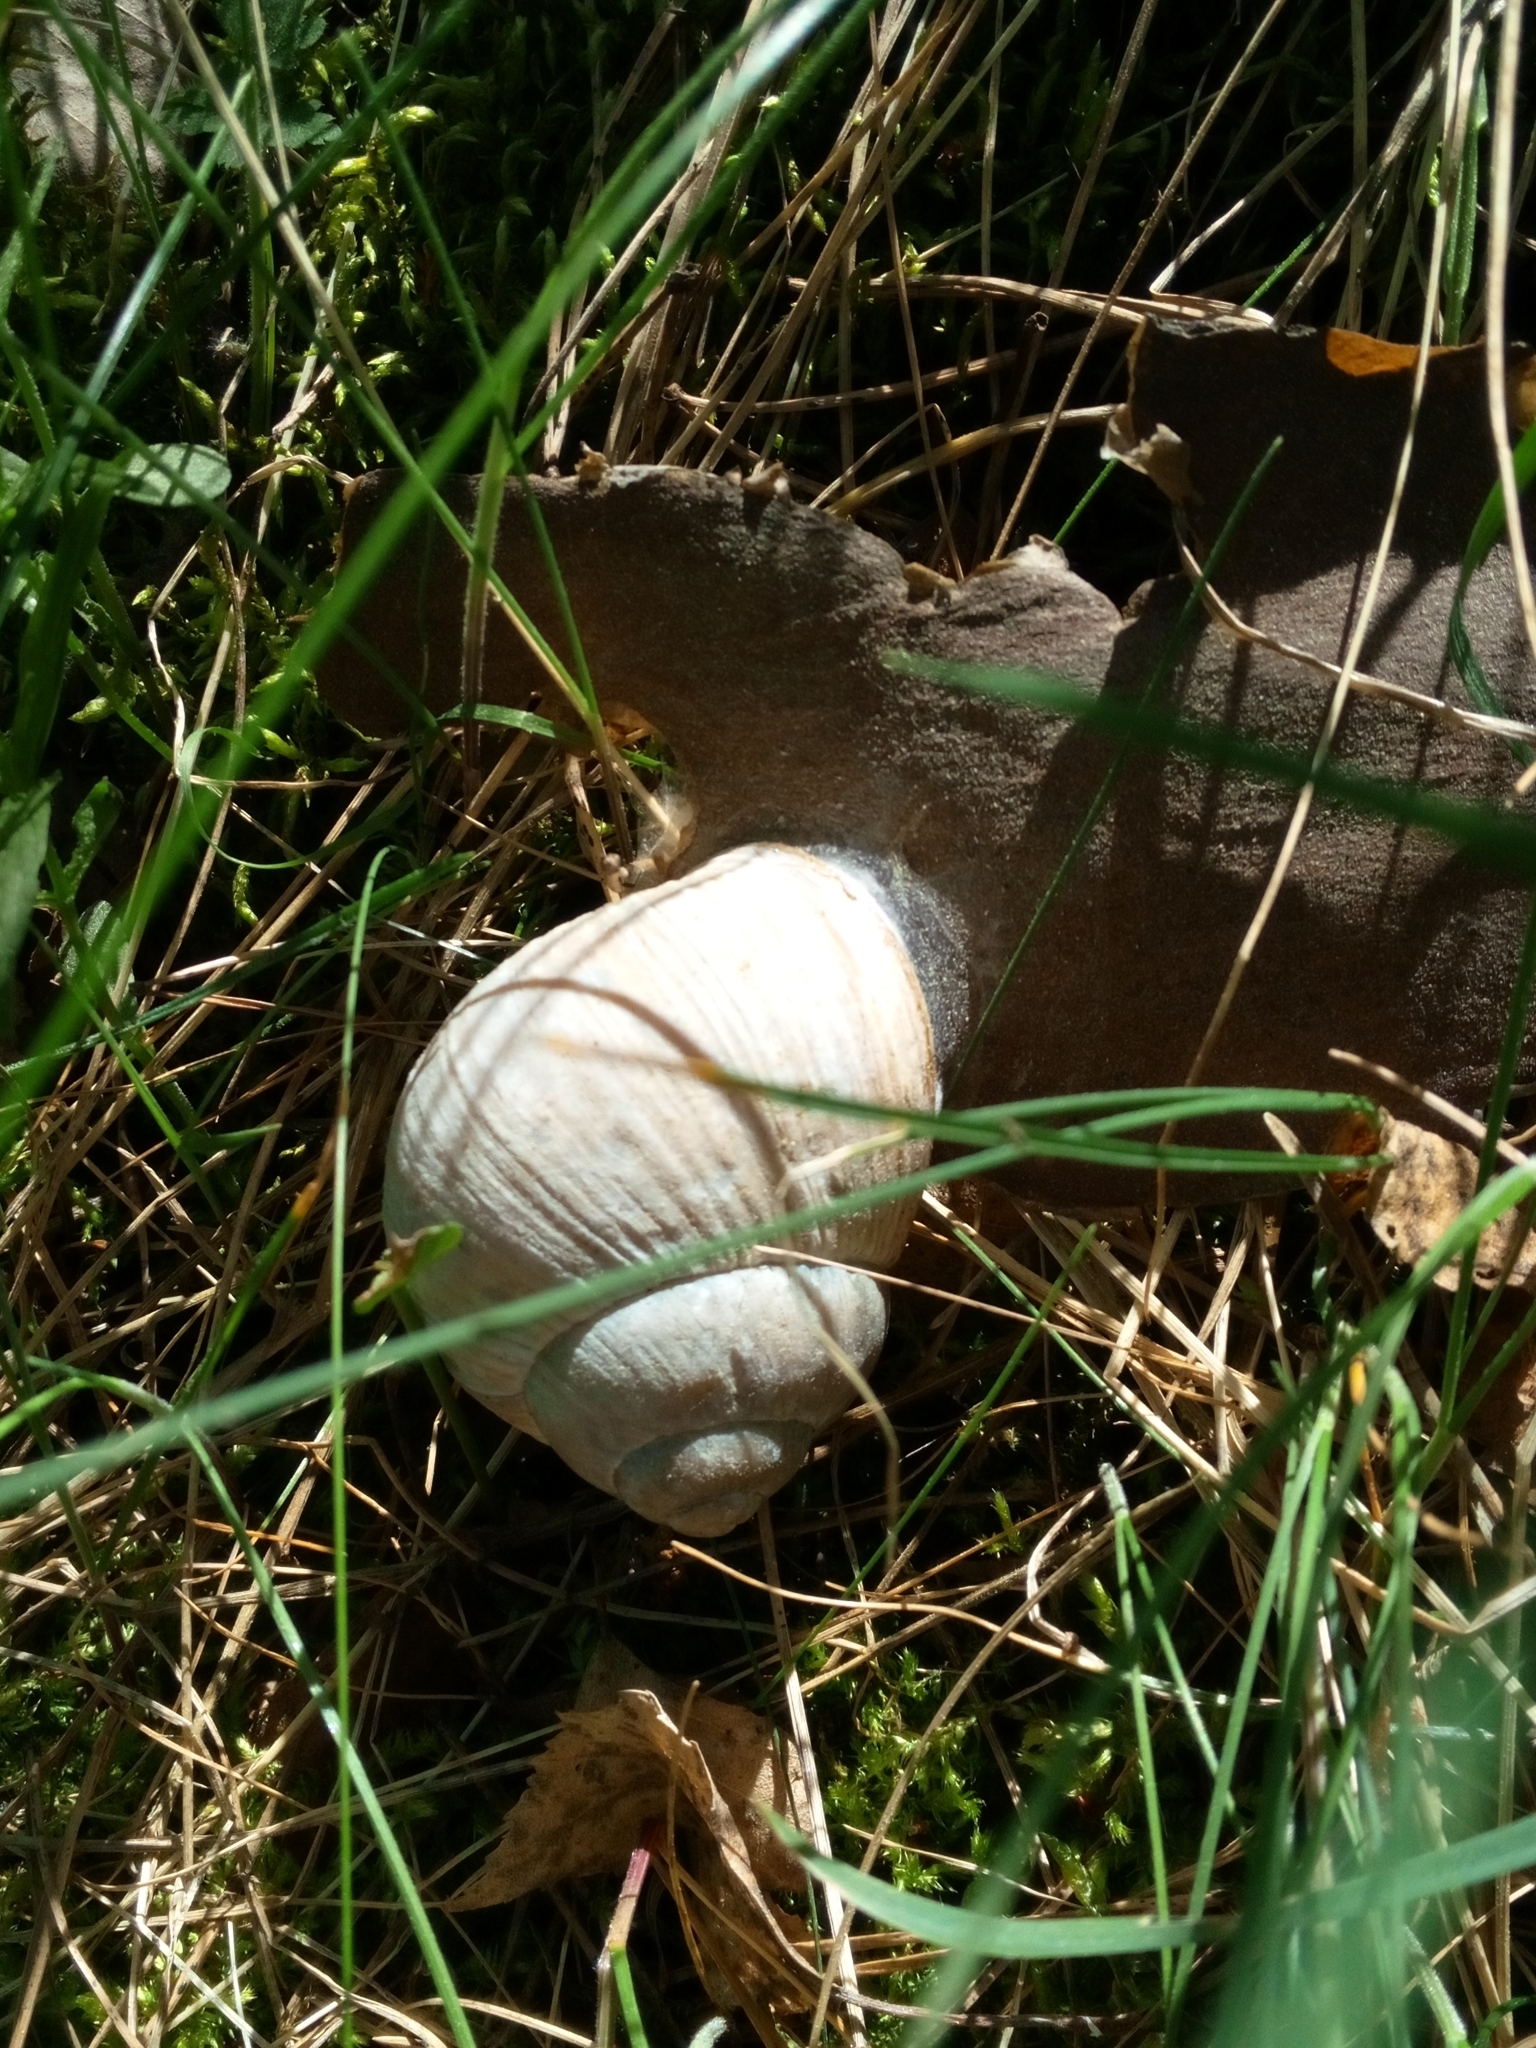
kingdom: Animalia
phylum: Mollusca
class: Gastropoda
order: Stylommatophora
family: Helicidae
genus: Helix
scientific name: Helix pomatia
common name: Roman snail
